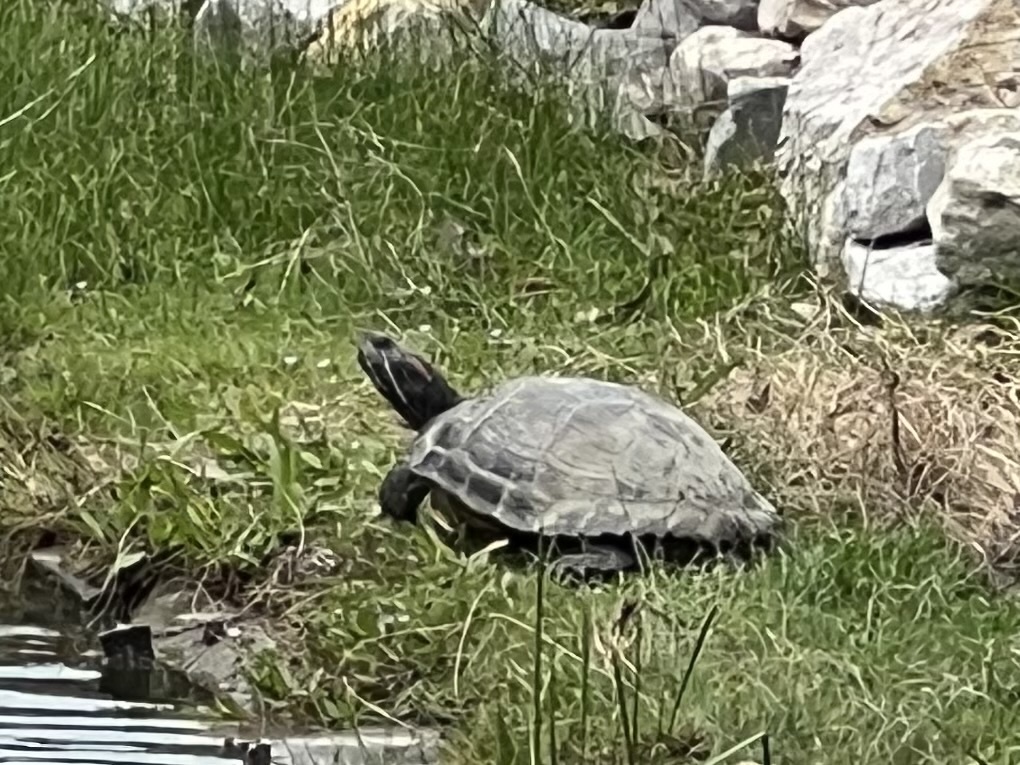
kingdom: Animalia
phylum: Chordata
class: Testudines
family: Emydidae
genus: Trachemys
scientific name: Trachemys scripta
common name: Slider
